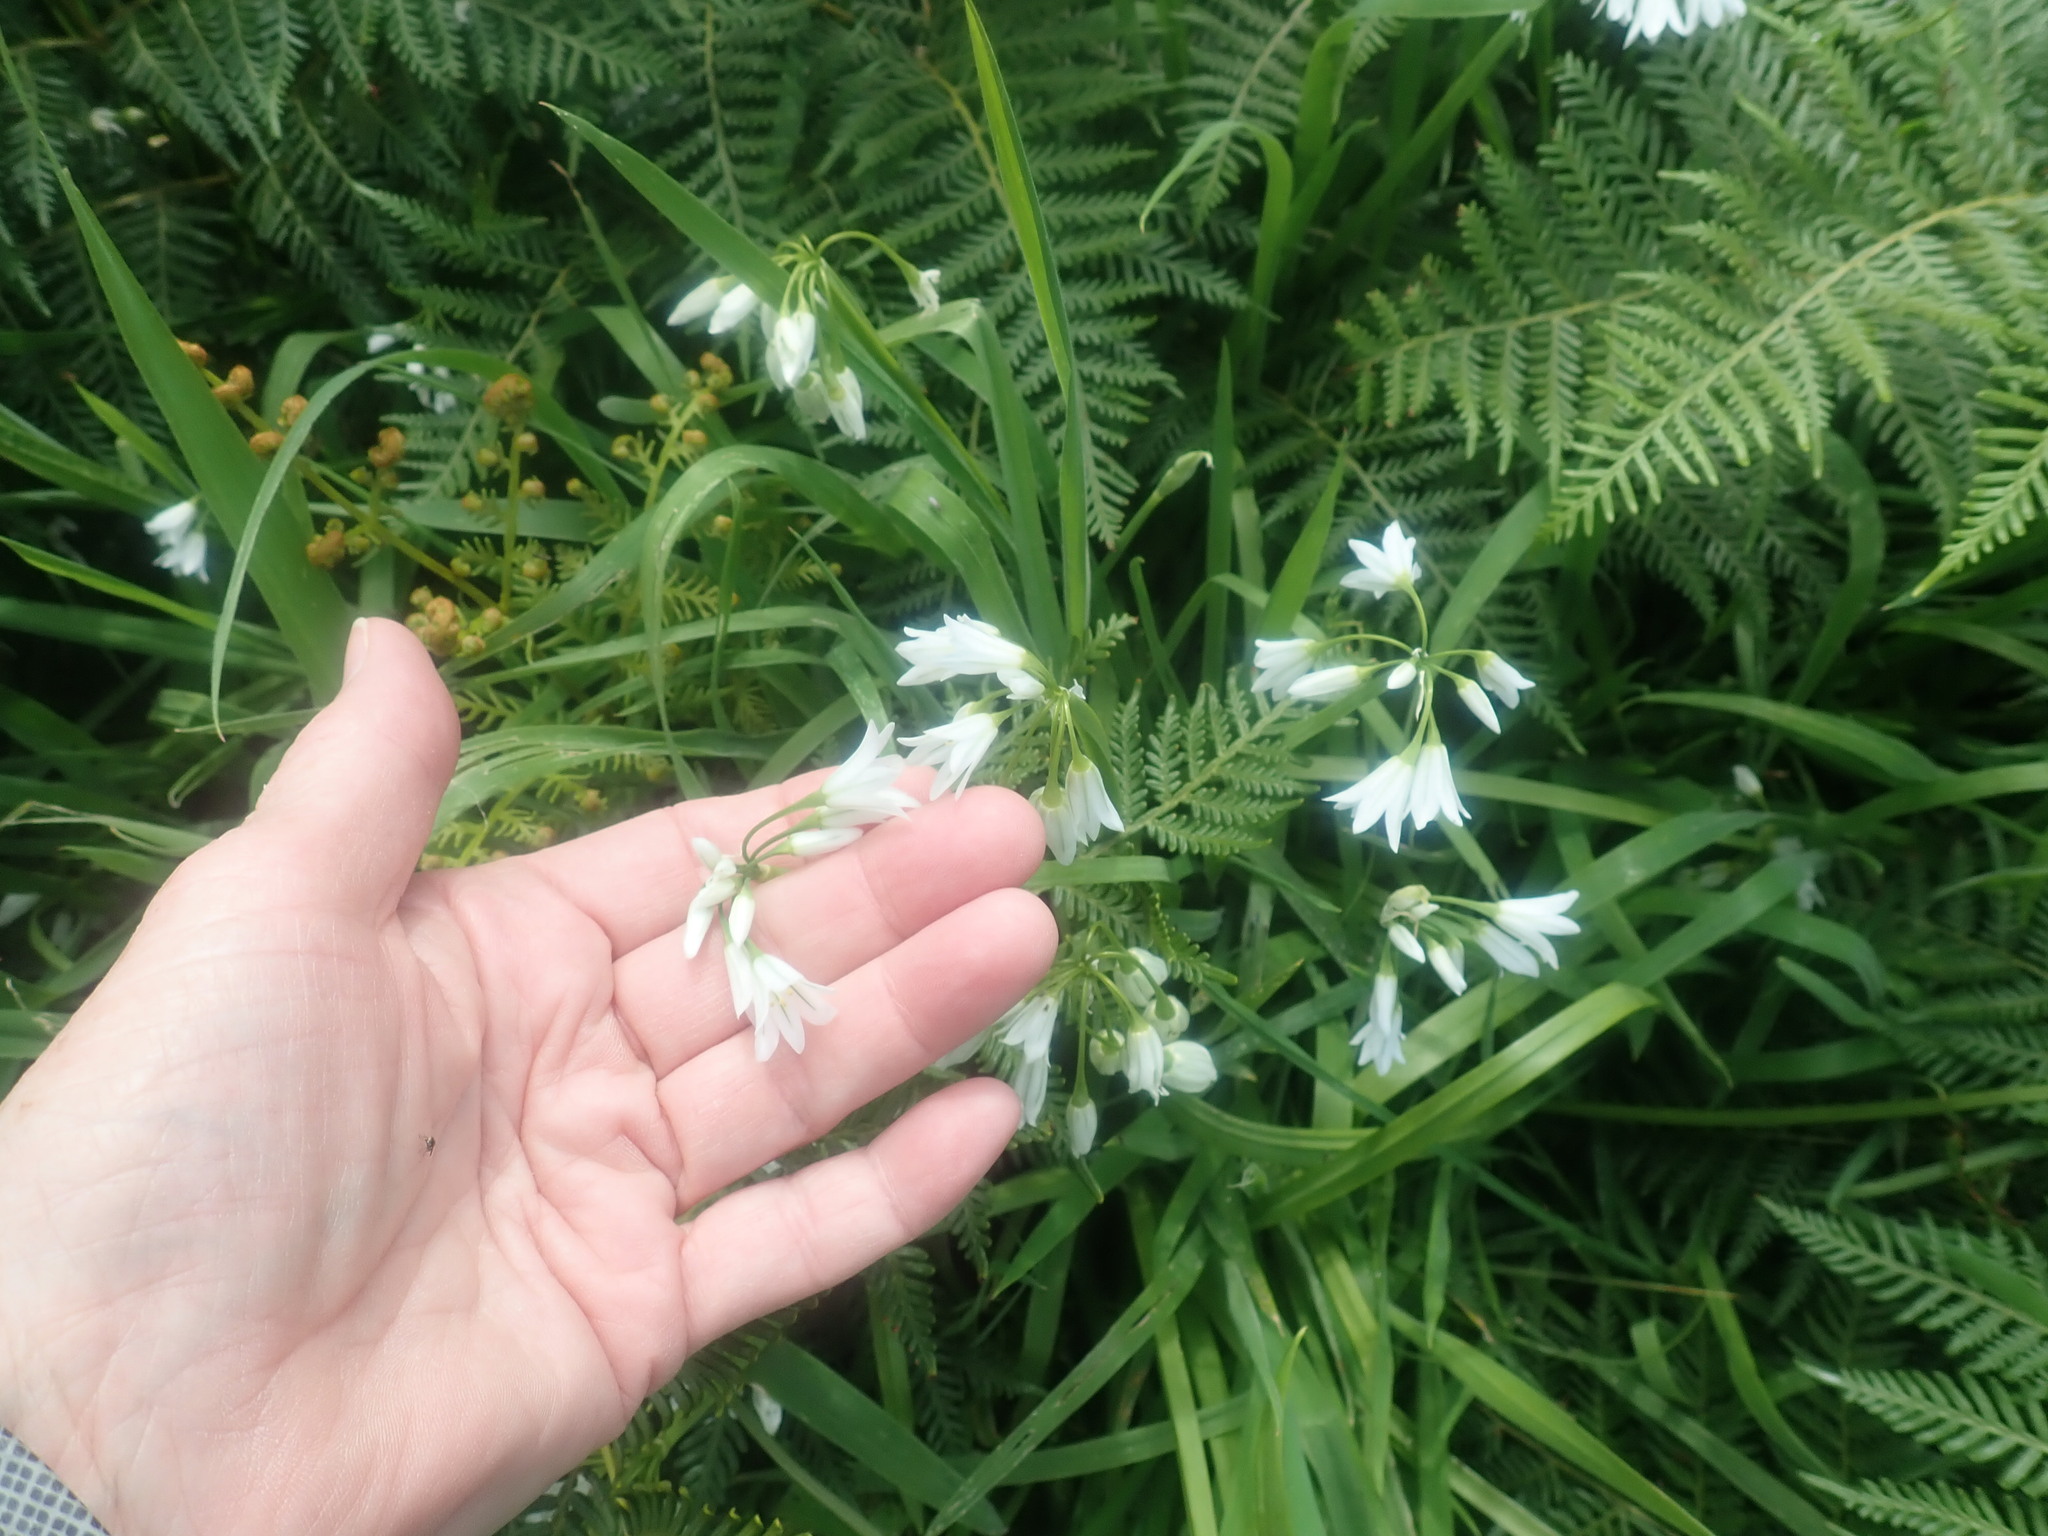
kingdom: Plantae
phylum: Tracheophyta
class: Liliopsida
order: Asparagales
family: Amaryllidaceae
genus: Allium
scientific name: Allium triquetrum
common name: Three-cornered garlic
